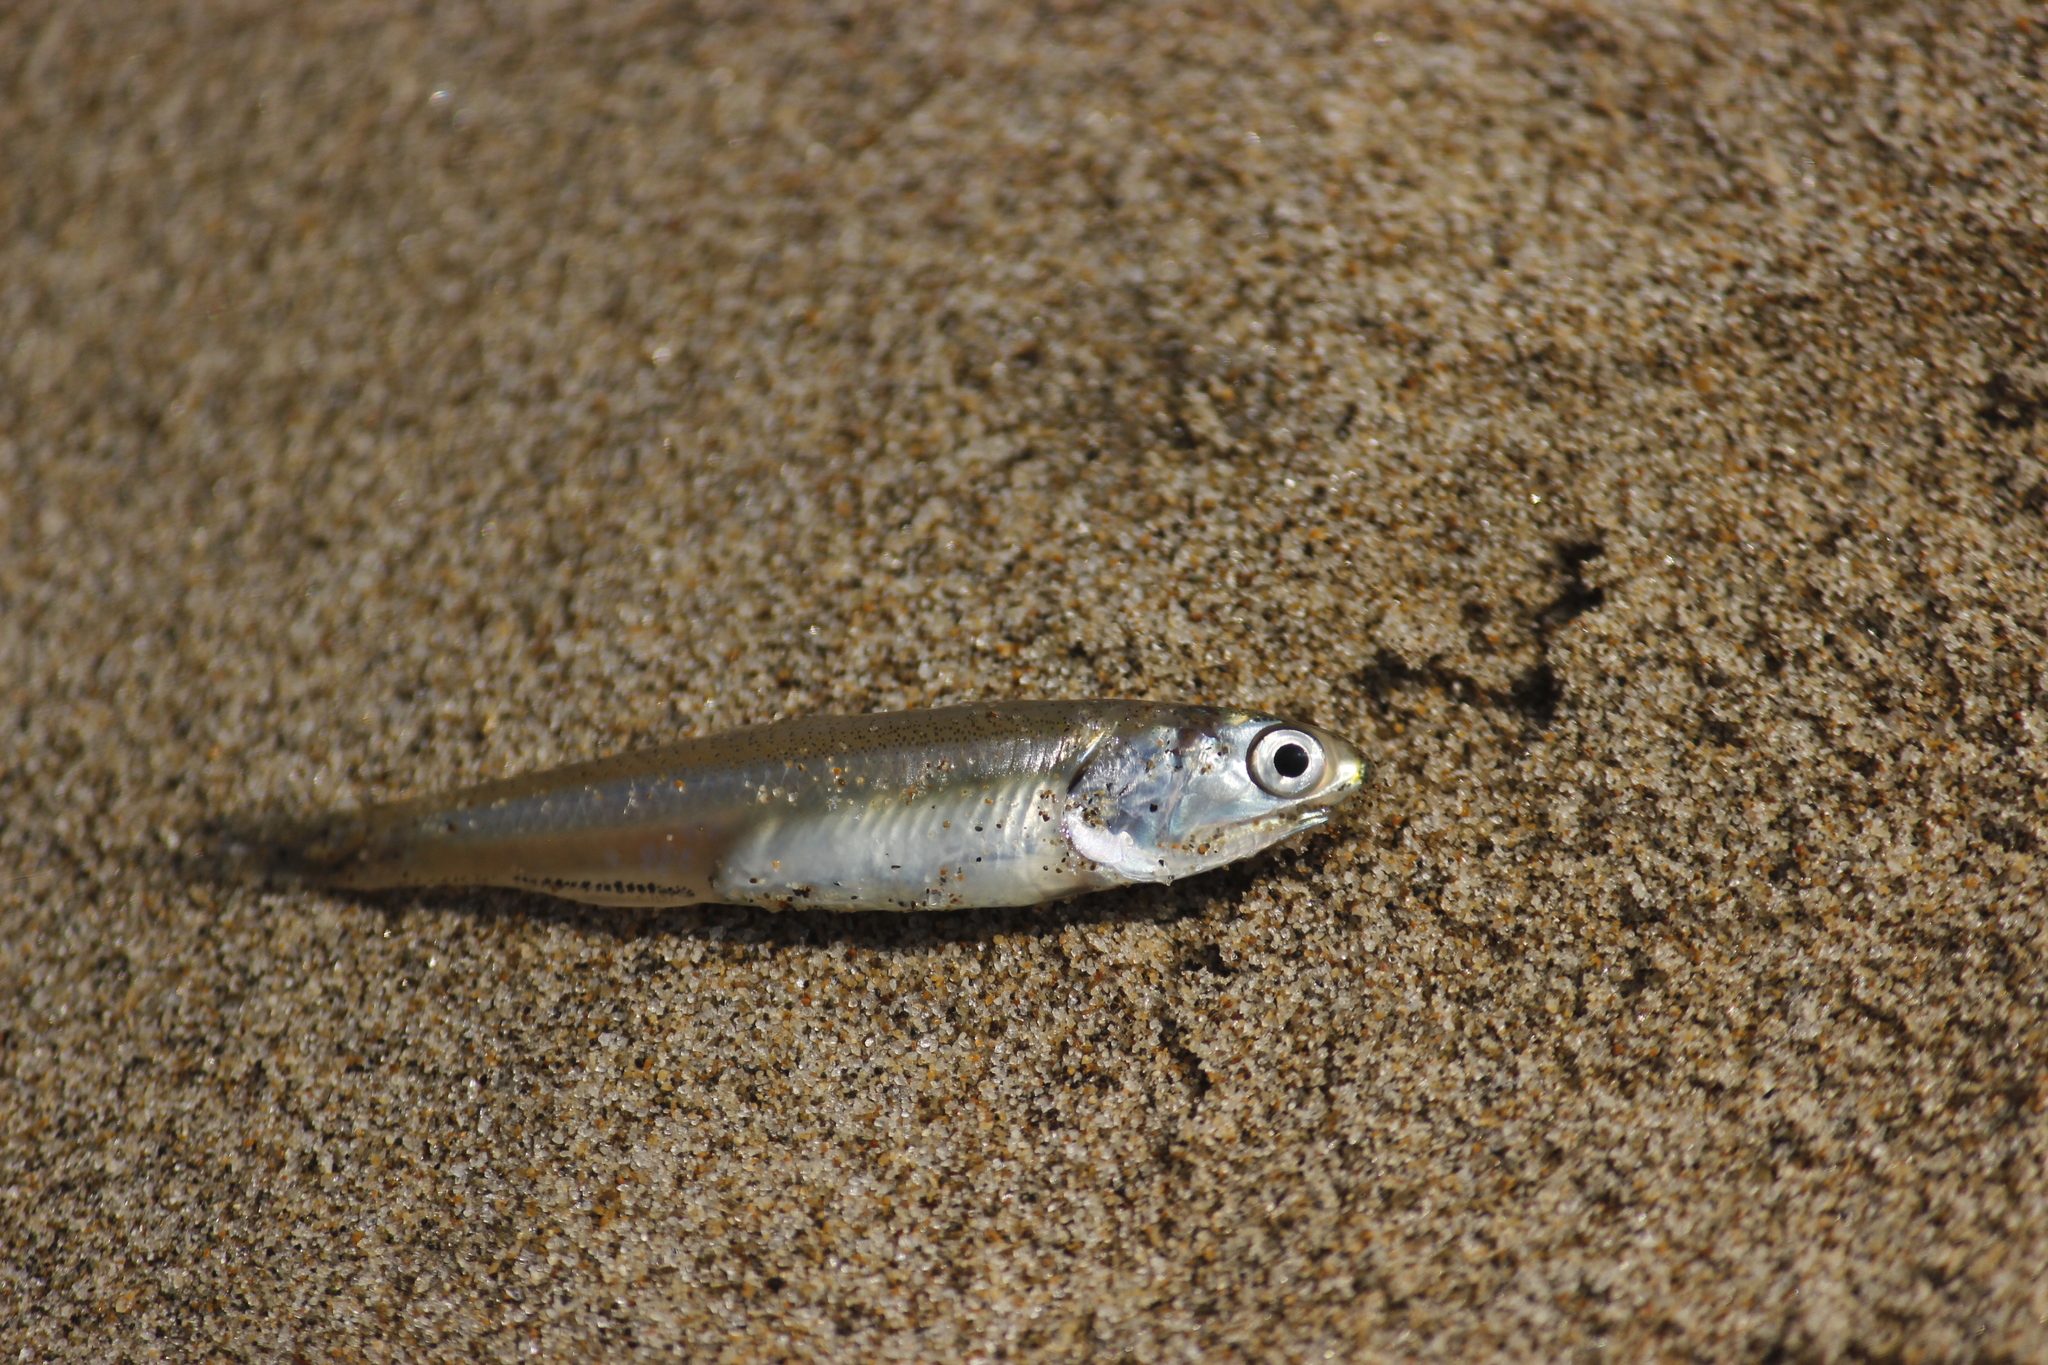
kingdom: Animalia
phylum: Chordata
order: Clupeiformes
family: Engraulidae
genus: Anchoa
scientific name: Anchoa nasus
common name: Longnose anchovy
